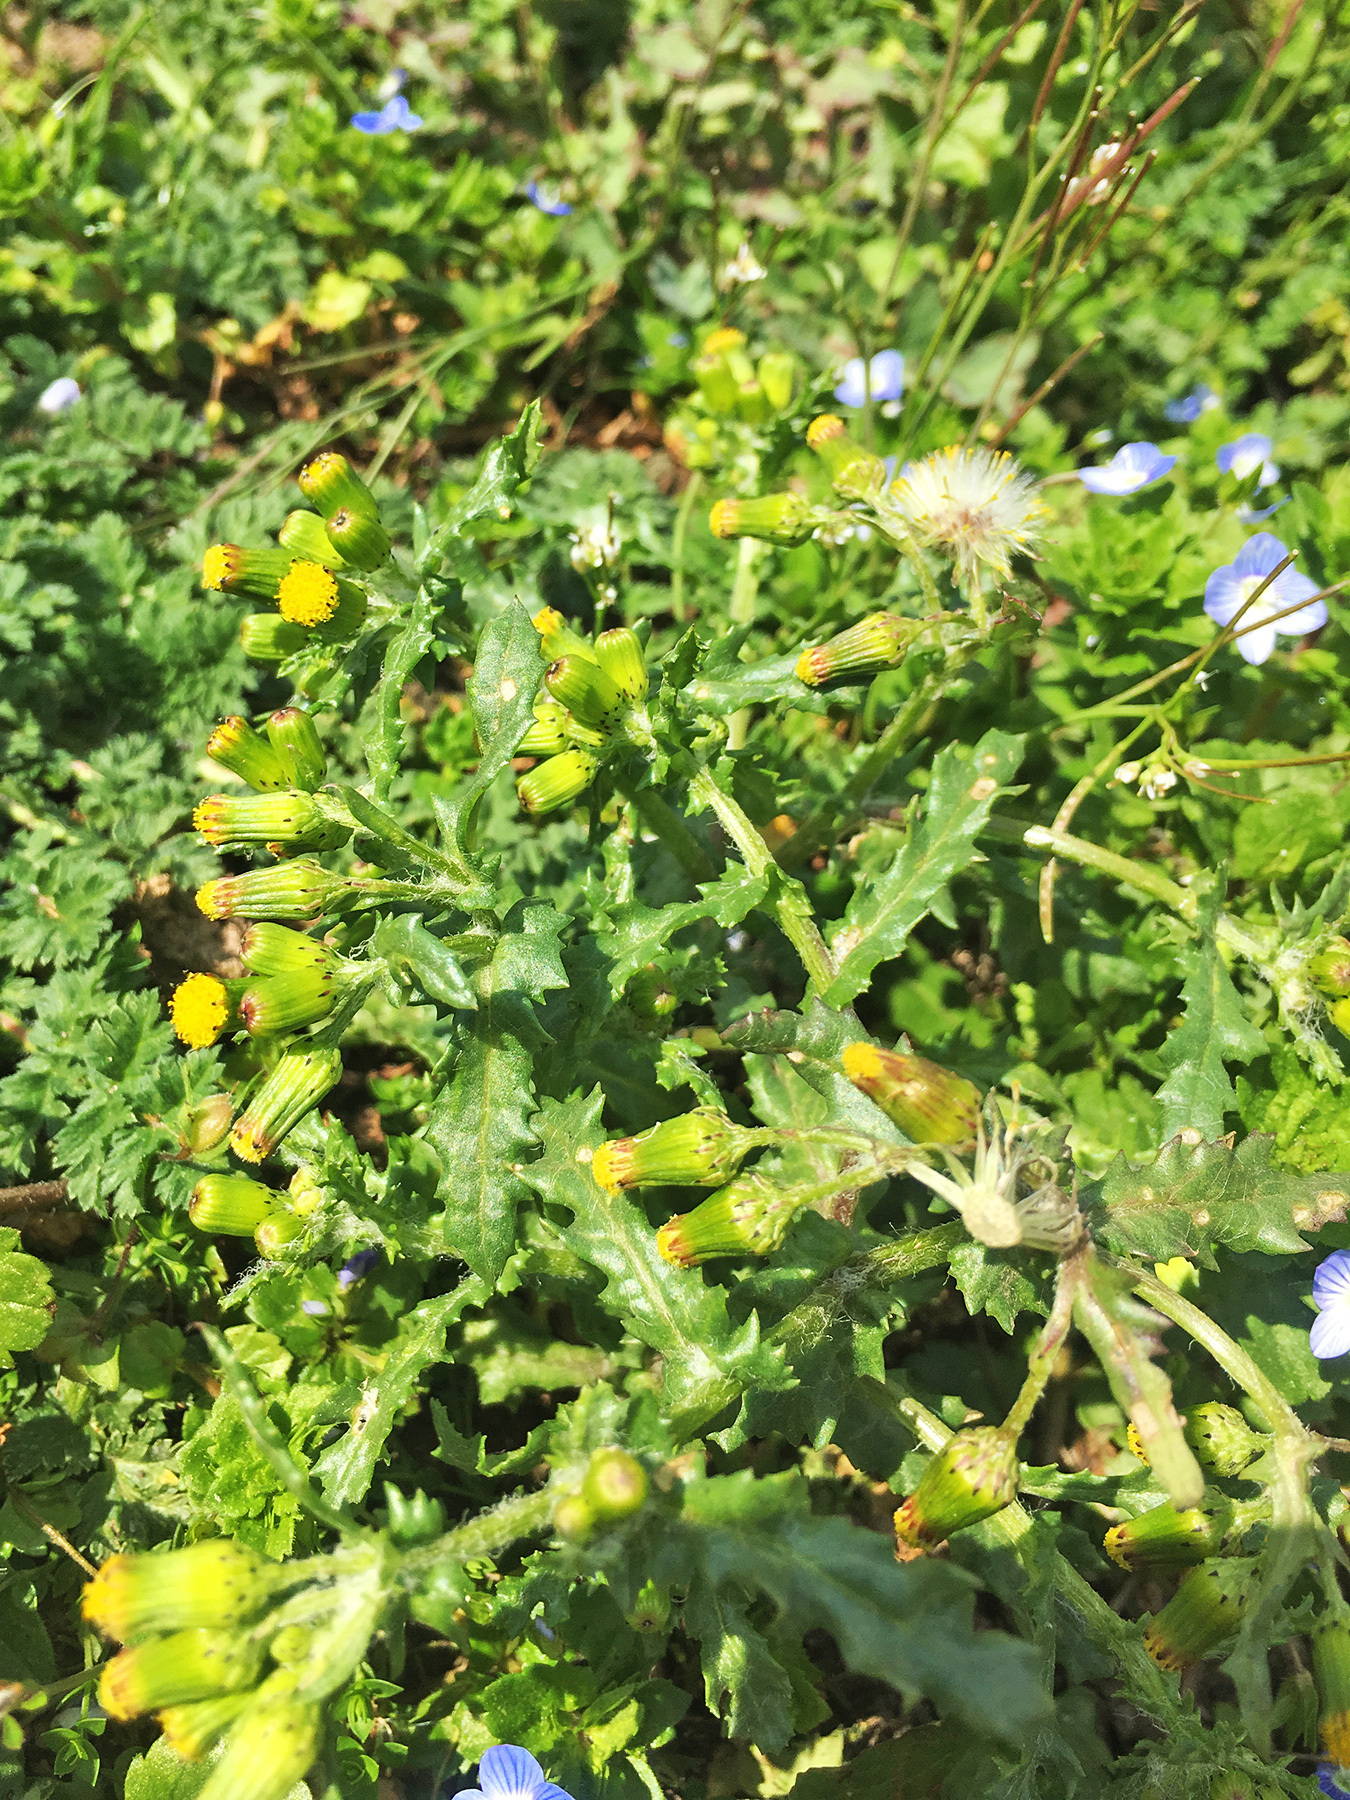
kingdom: Plantae
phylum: Tracheophyta
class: Magnoliopsida
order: Asterales
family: Asteraceae
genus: Senecio
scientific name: Senecio vulgaris
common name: Old-man-in-the-spring
